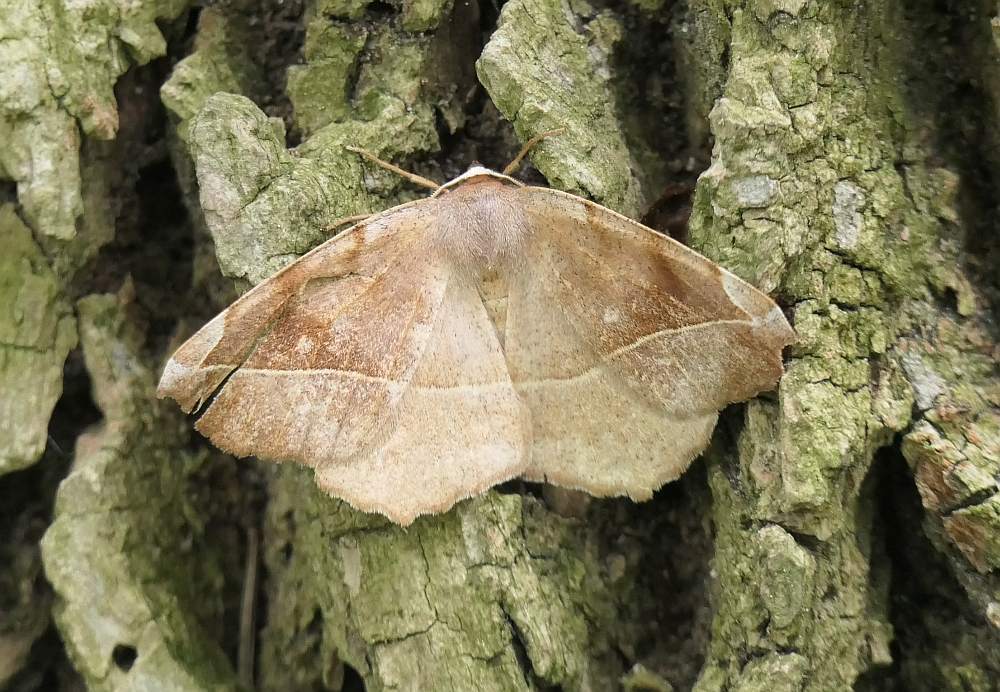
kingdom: Animalia
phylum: Arthropoda
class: Insecta
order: Lepidoptera
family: Geometridae
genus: Eutrapela
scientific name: Eutrapela clemataria
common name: Curved-toothed geometer
